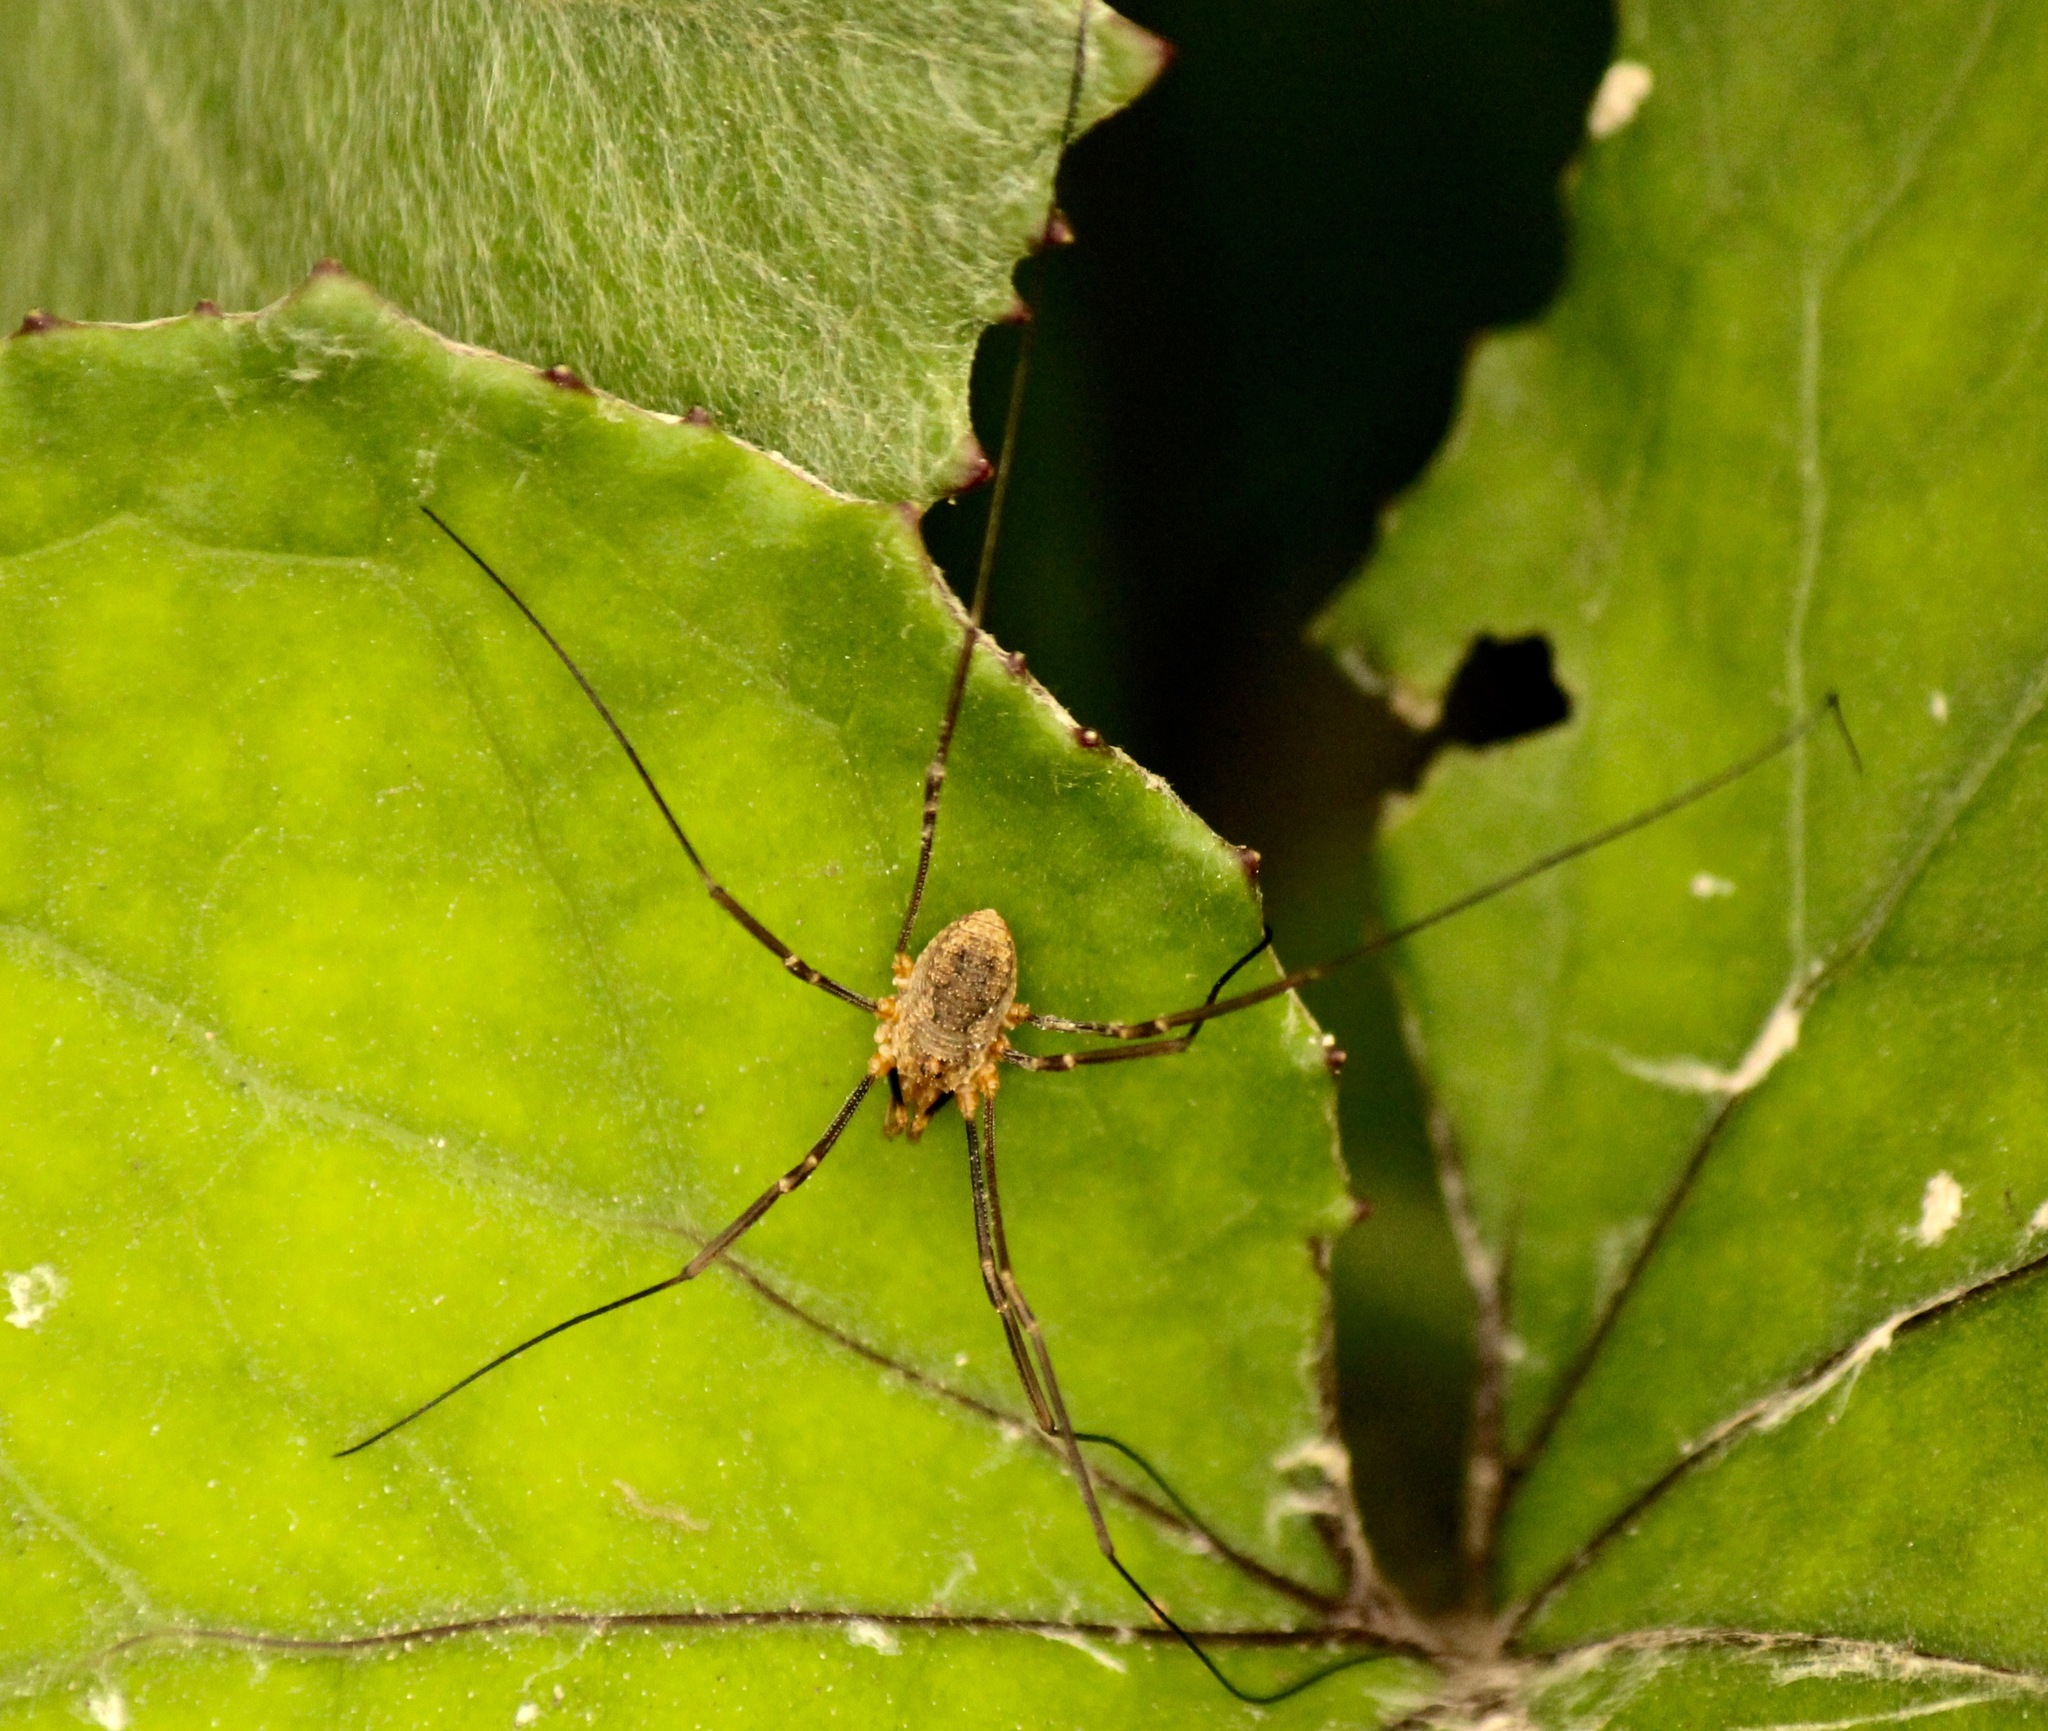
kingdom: Animalia
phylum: Arthropoda
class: Arachnida
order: Opiliones
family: Phalangiidae
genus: Phalangium
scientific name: Phalangium opilio
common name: Daddy longleg
